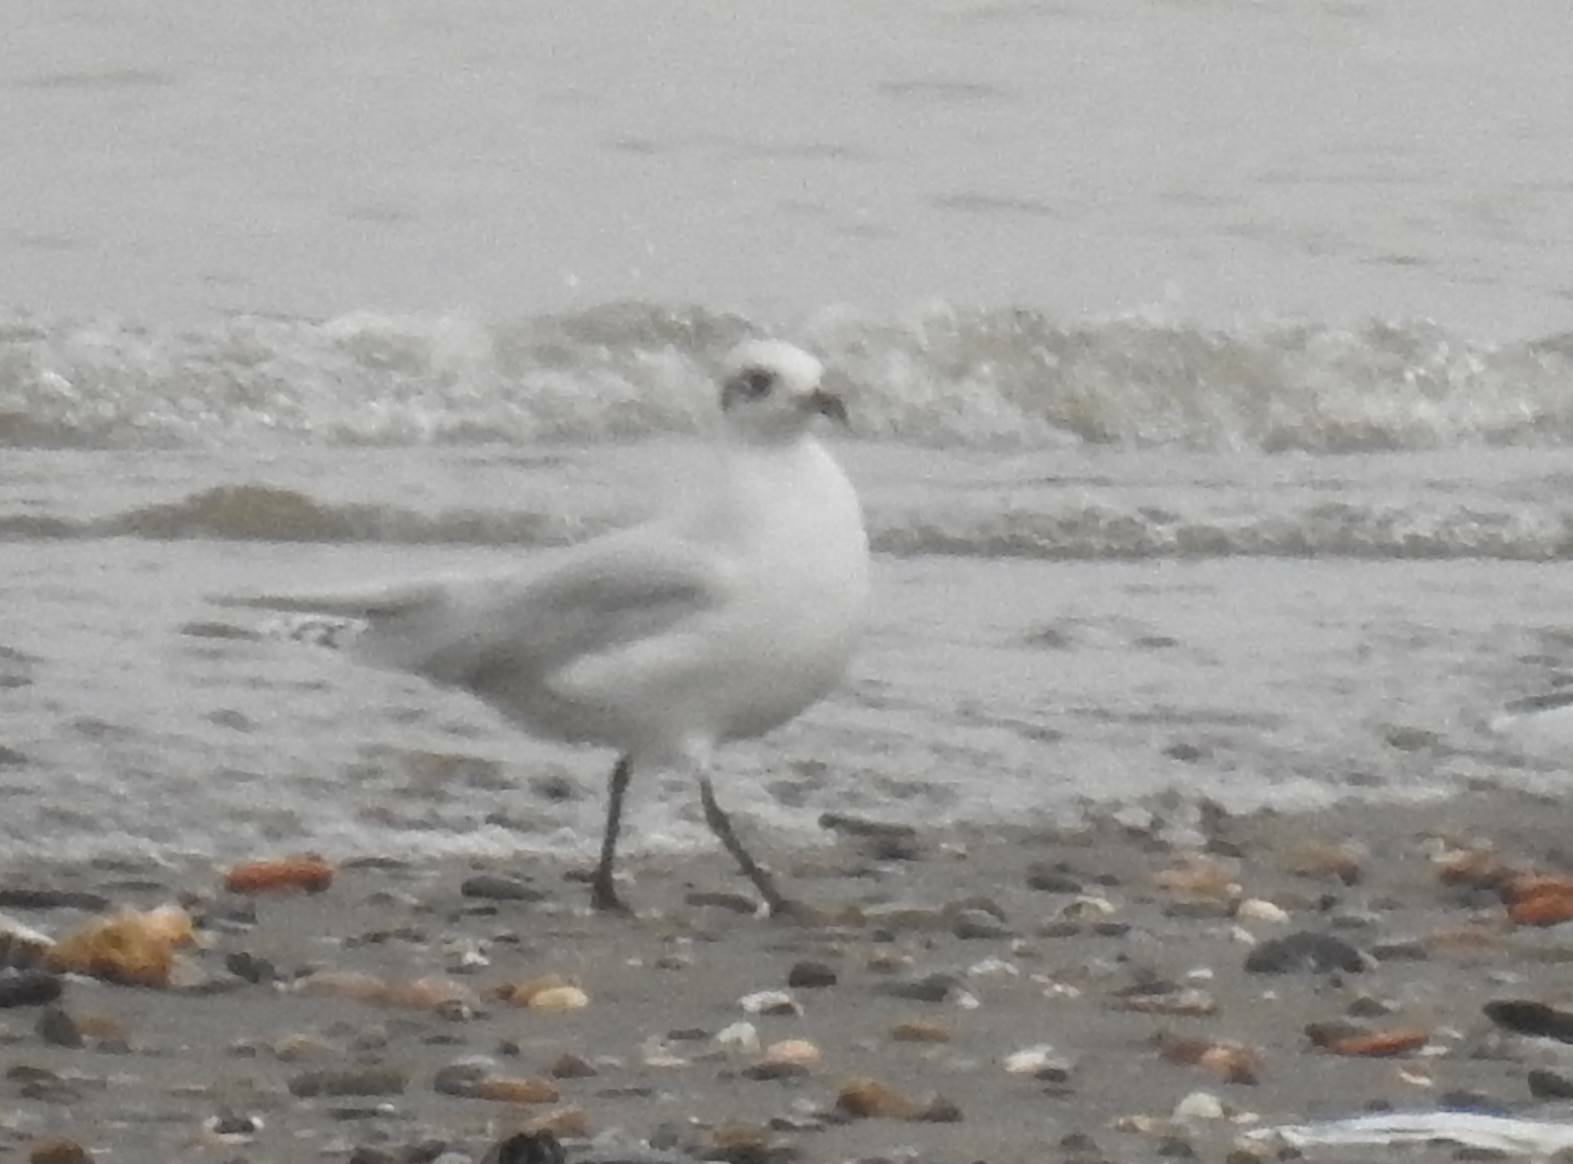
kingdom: Animalia
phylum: Chordata
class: Aves
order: Charadriiformes
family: Laridae
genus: Ichthyaetus
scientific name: Ichthyaetus melanocephalus
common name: Mediterranean gull
